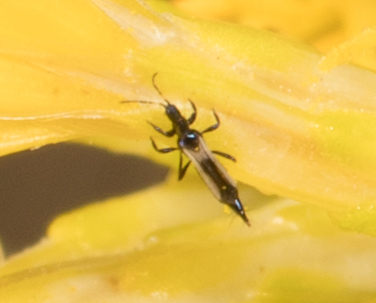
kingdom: Animalia
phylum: Arthropoda
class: Insecta
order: Thysanoptera
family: Aeolothripidae
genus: Erythrothrips
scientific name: Erythrothrips keeni
